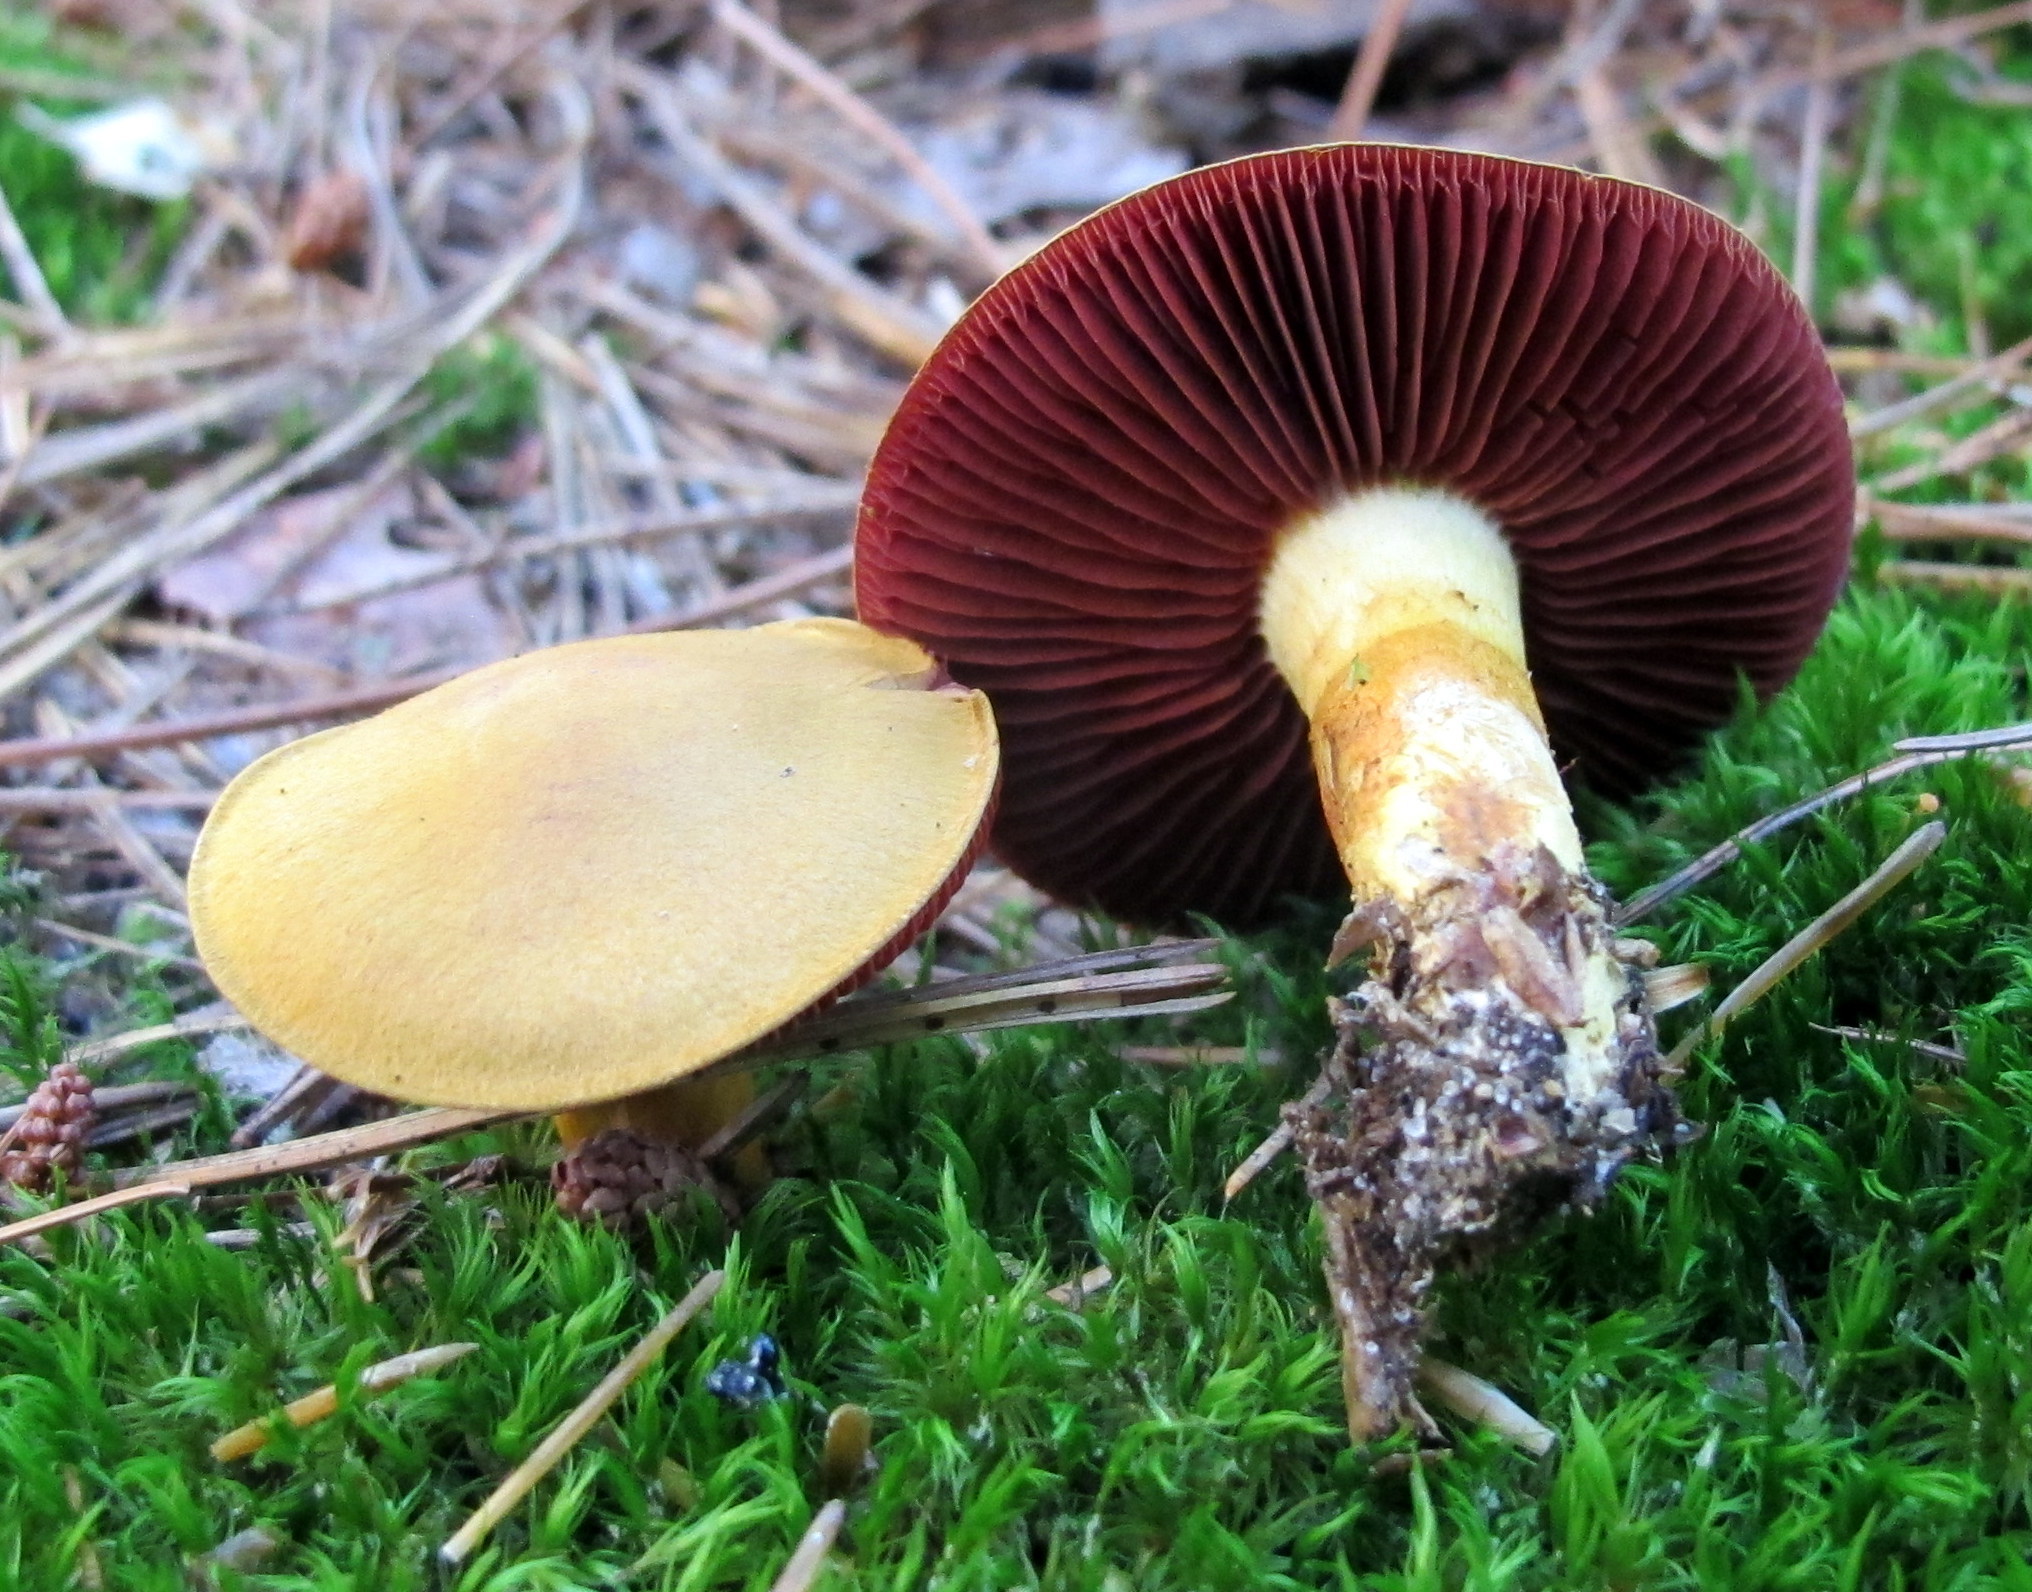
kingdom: Fungi
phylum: Basidiomycota
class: Agaricomycetes
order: Agaricales
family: Cortinariaceae
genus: Cortinarius
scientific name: Cortinarius semisanguineus
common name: Surprise webcap
